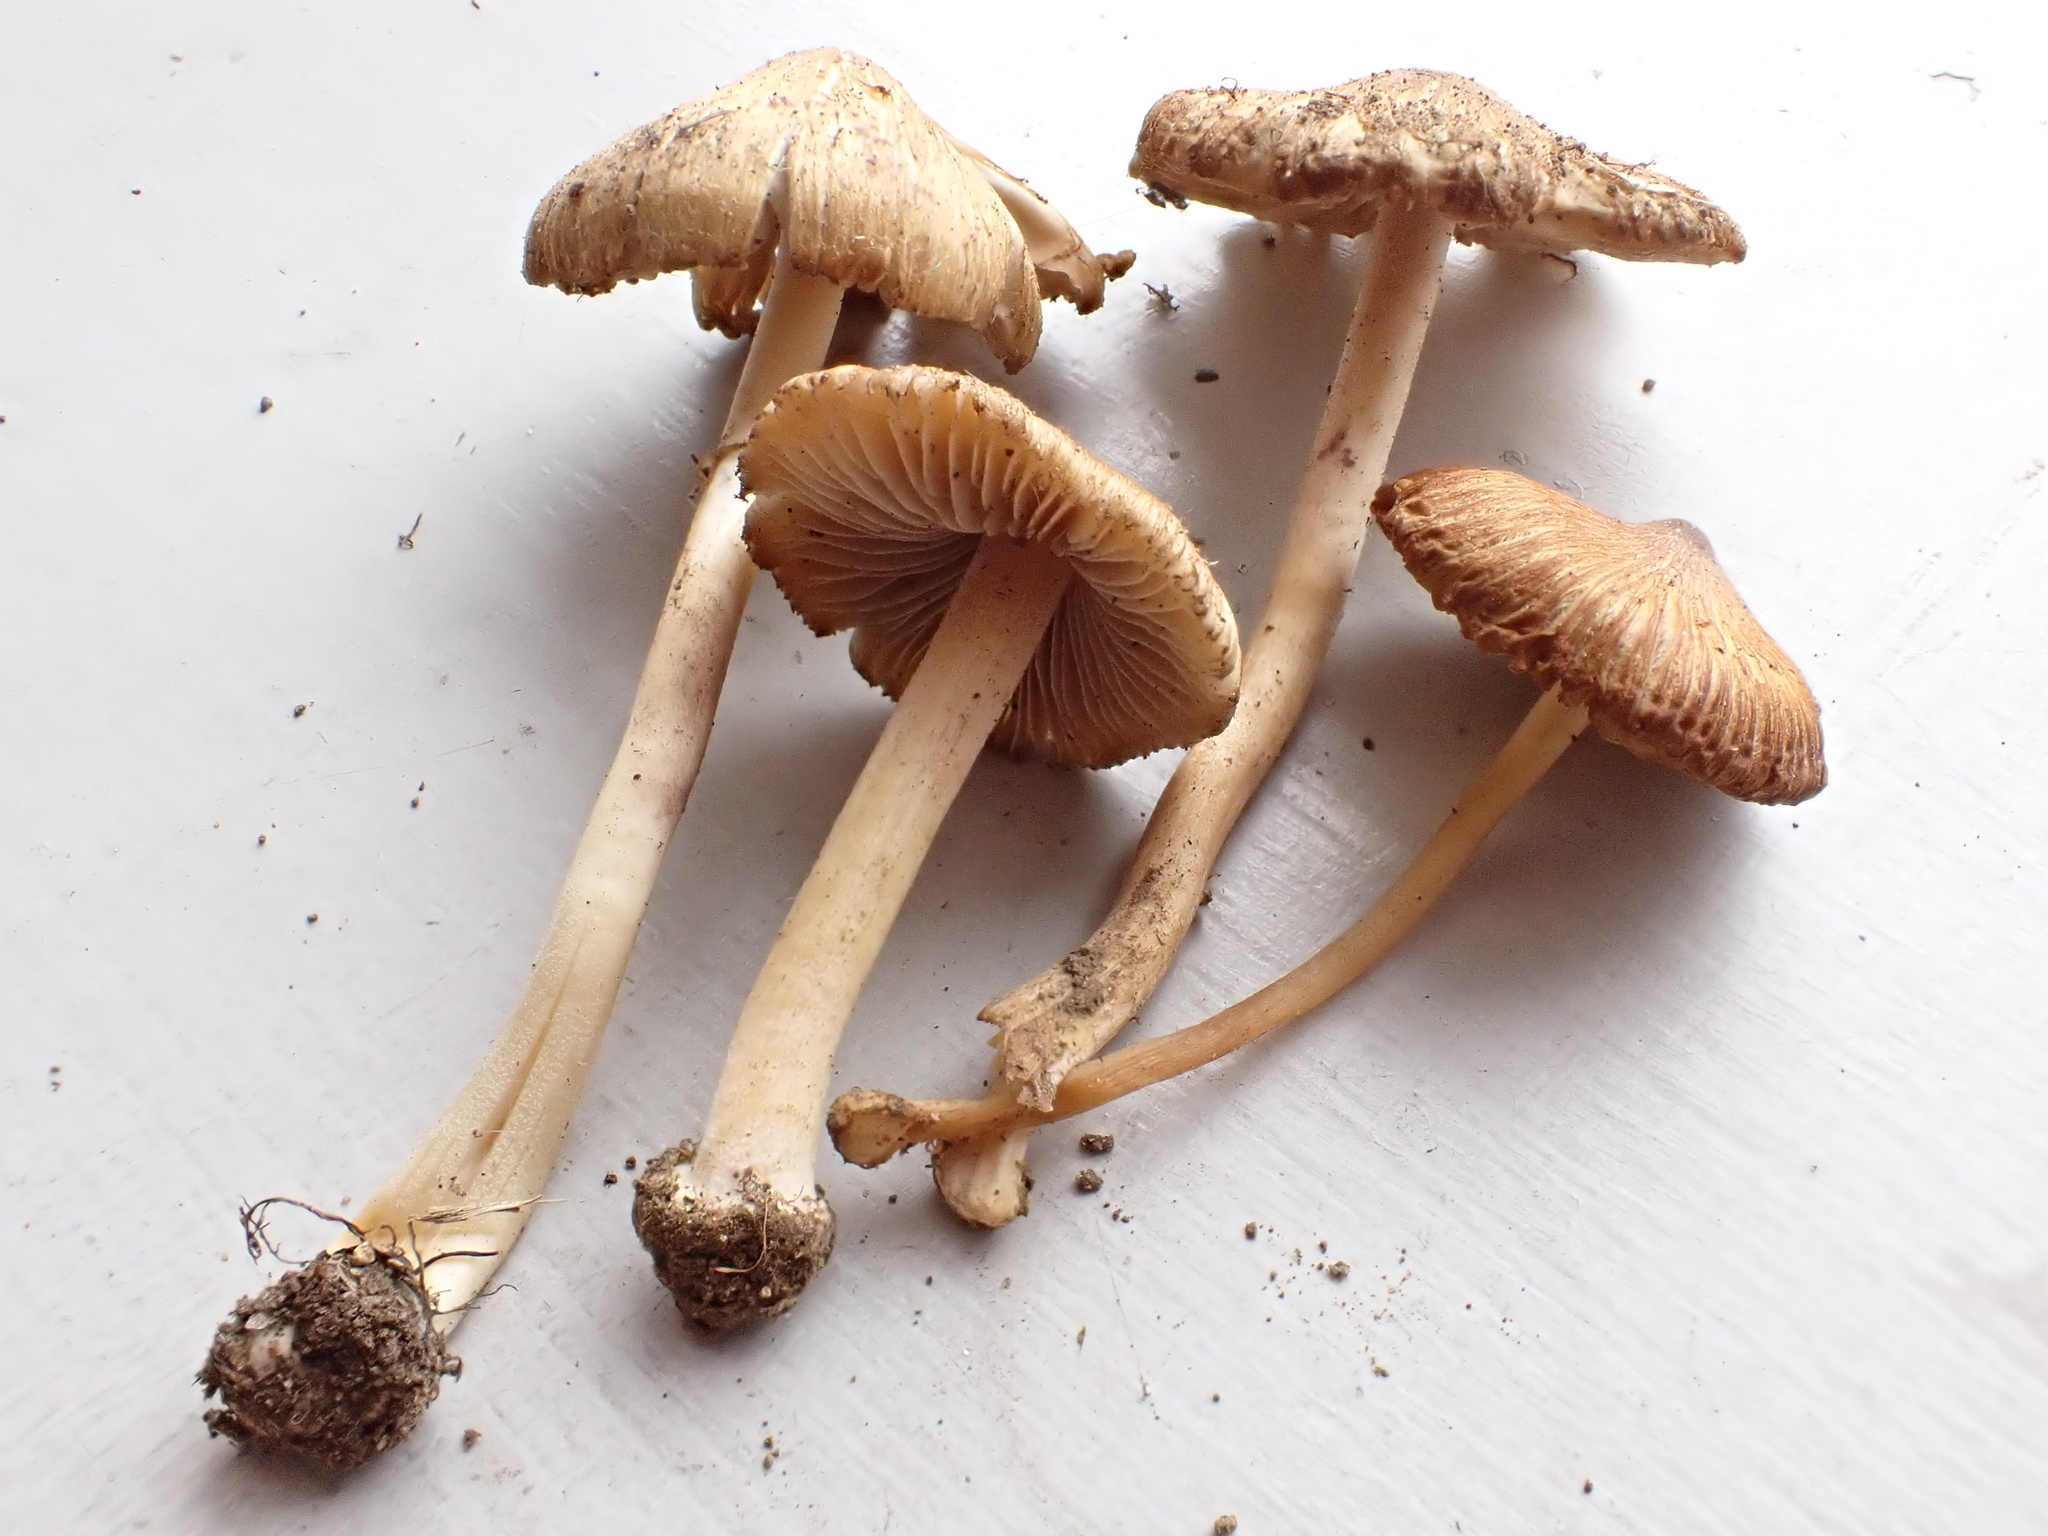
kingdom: Fungi
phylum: Basidiomycota
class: Agaricomycetes
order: Agaricales
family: Inocybaceae
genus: Inocybe
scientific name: Inocybe radiata
